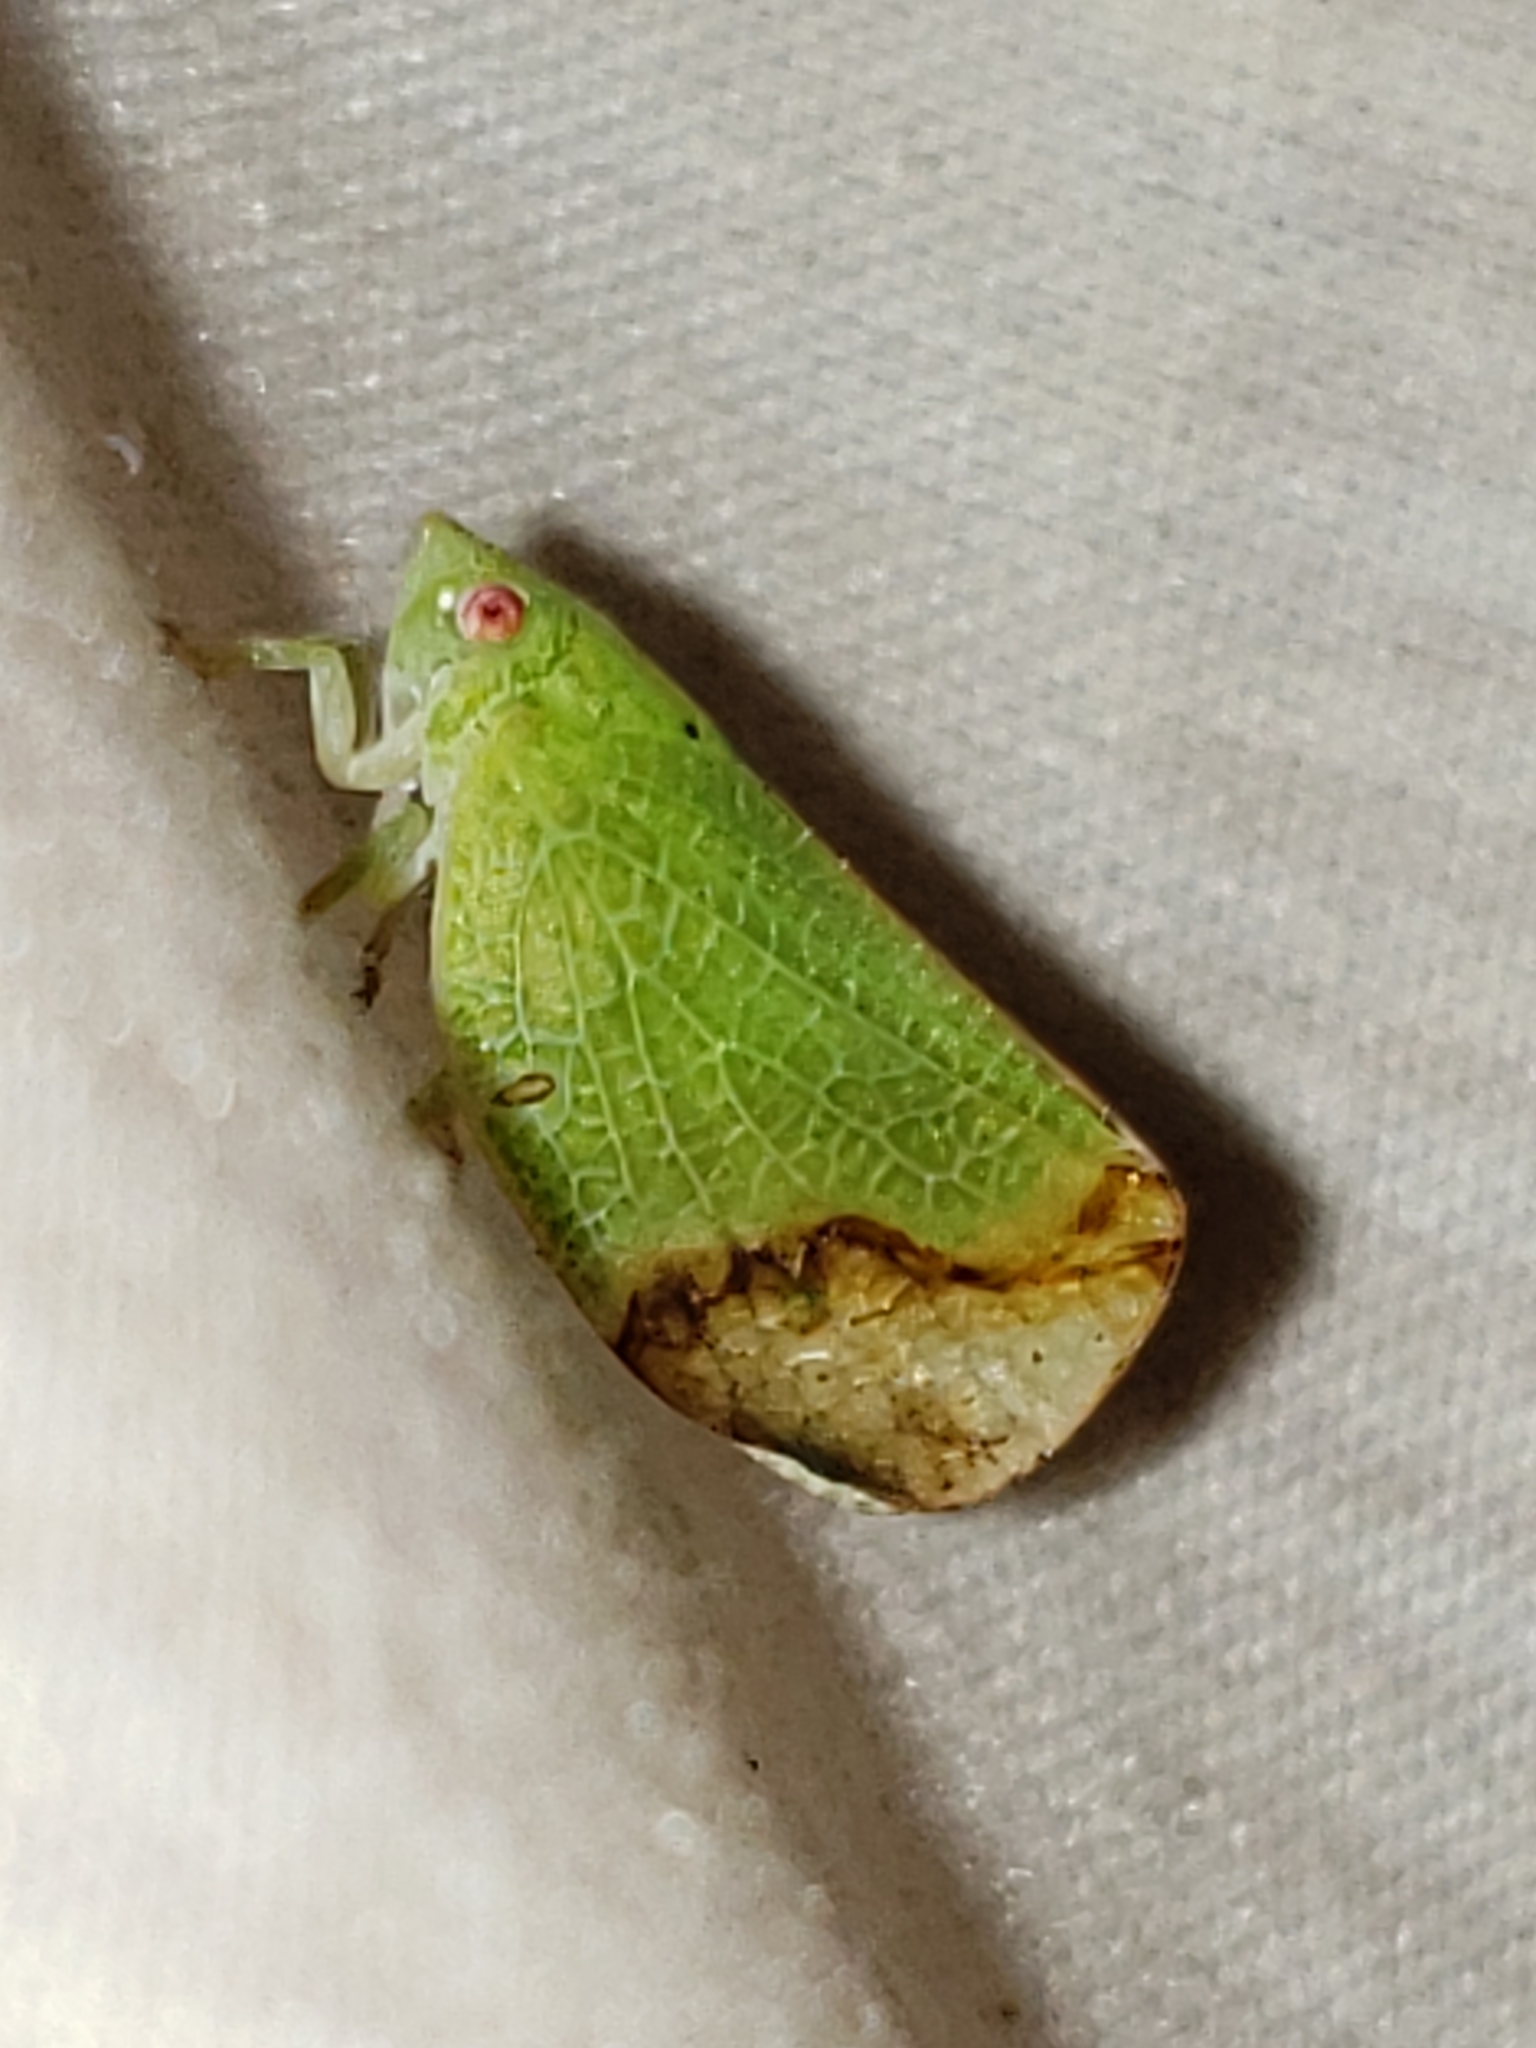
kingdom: Animalia
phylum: Arthropoda
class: Insecta
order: Hemiptera
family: Acanaloniidae
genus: Acanalonia
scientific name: Acanalonia conica
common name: Green cone-headed planthopper
